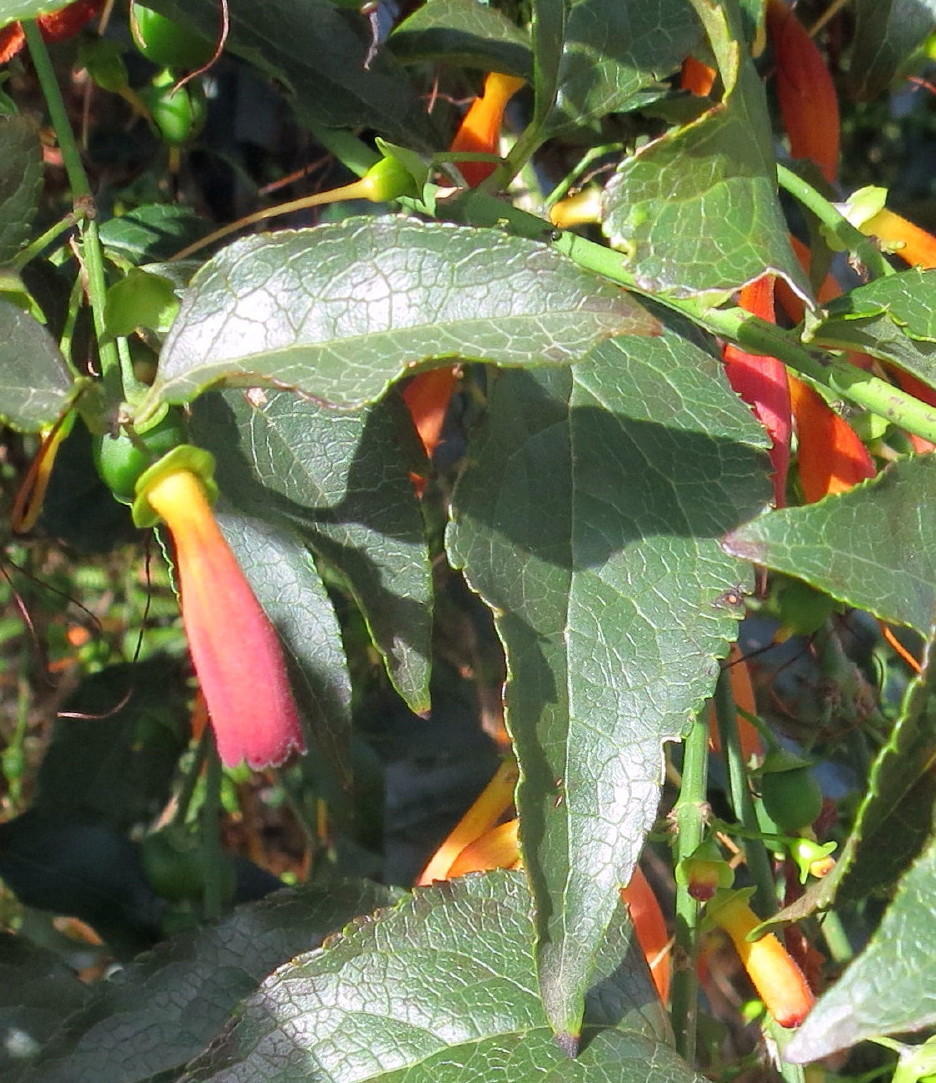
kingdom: Plantae
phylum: Tracheophyta
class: Magnoliopsida
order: Lamiales
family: Stilbaceae
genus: Halleria
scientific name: Halleria lucida
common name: Tree fuschia
